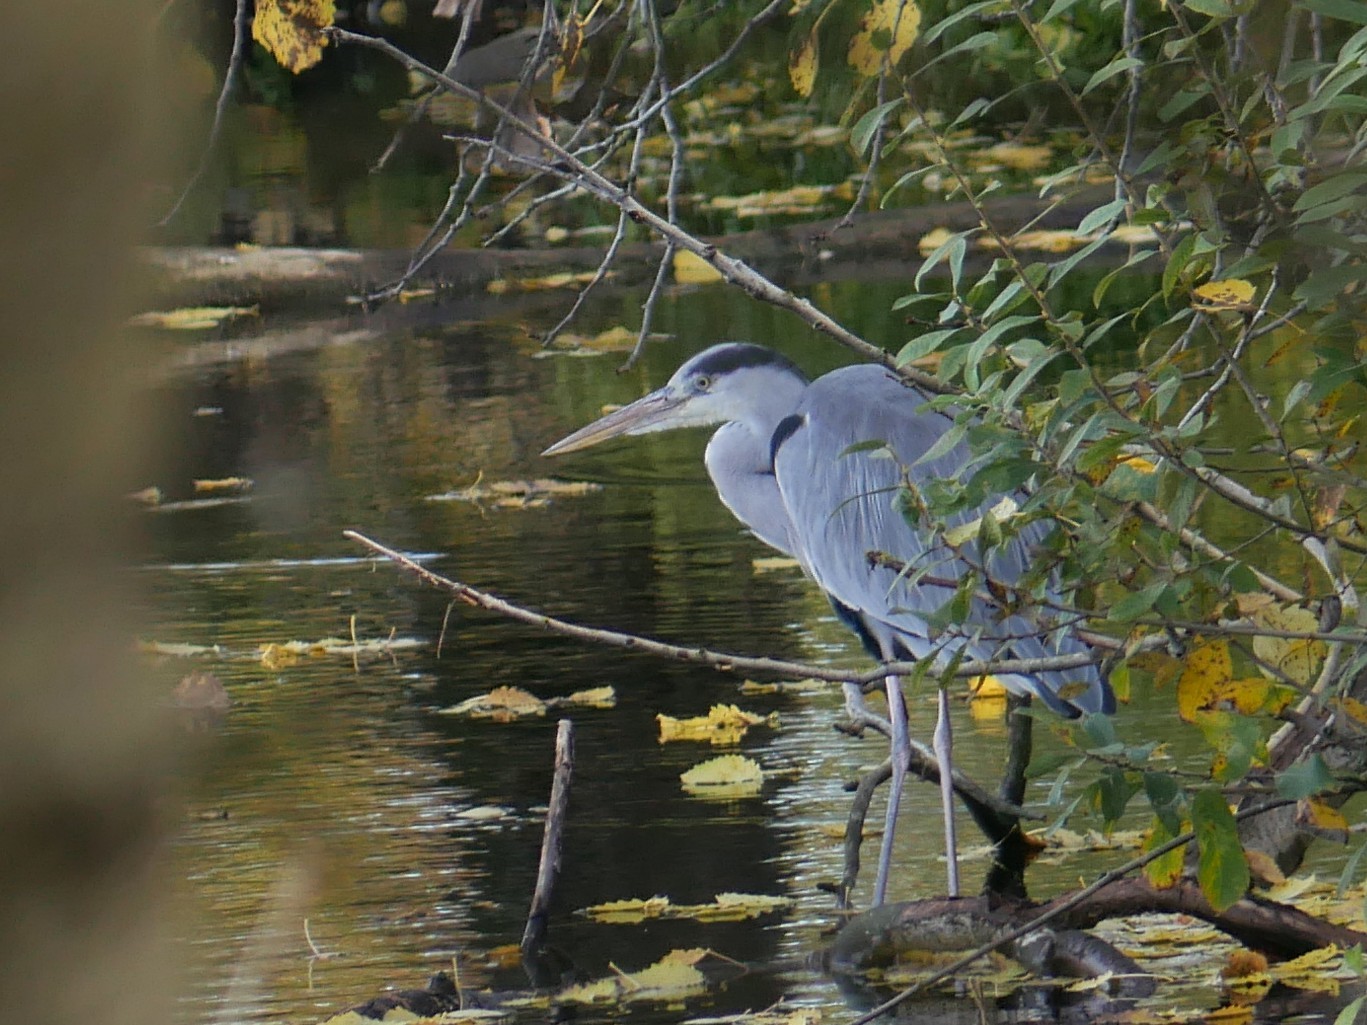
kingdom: Animalia
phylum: Chordata
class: Aves
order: Pelecaniformes
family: Ardeidae
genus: Ardea
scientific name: Ardea cinerea
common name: Grey heron
